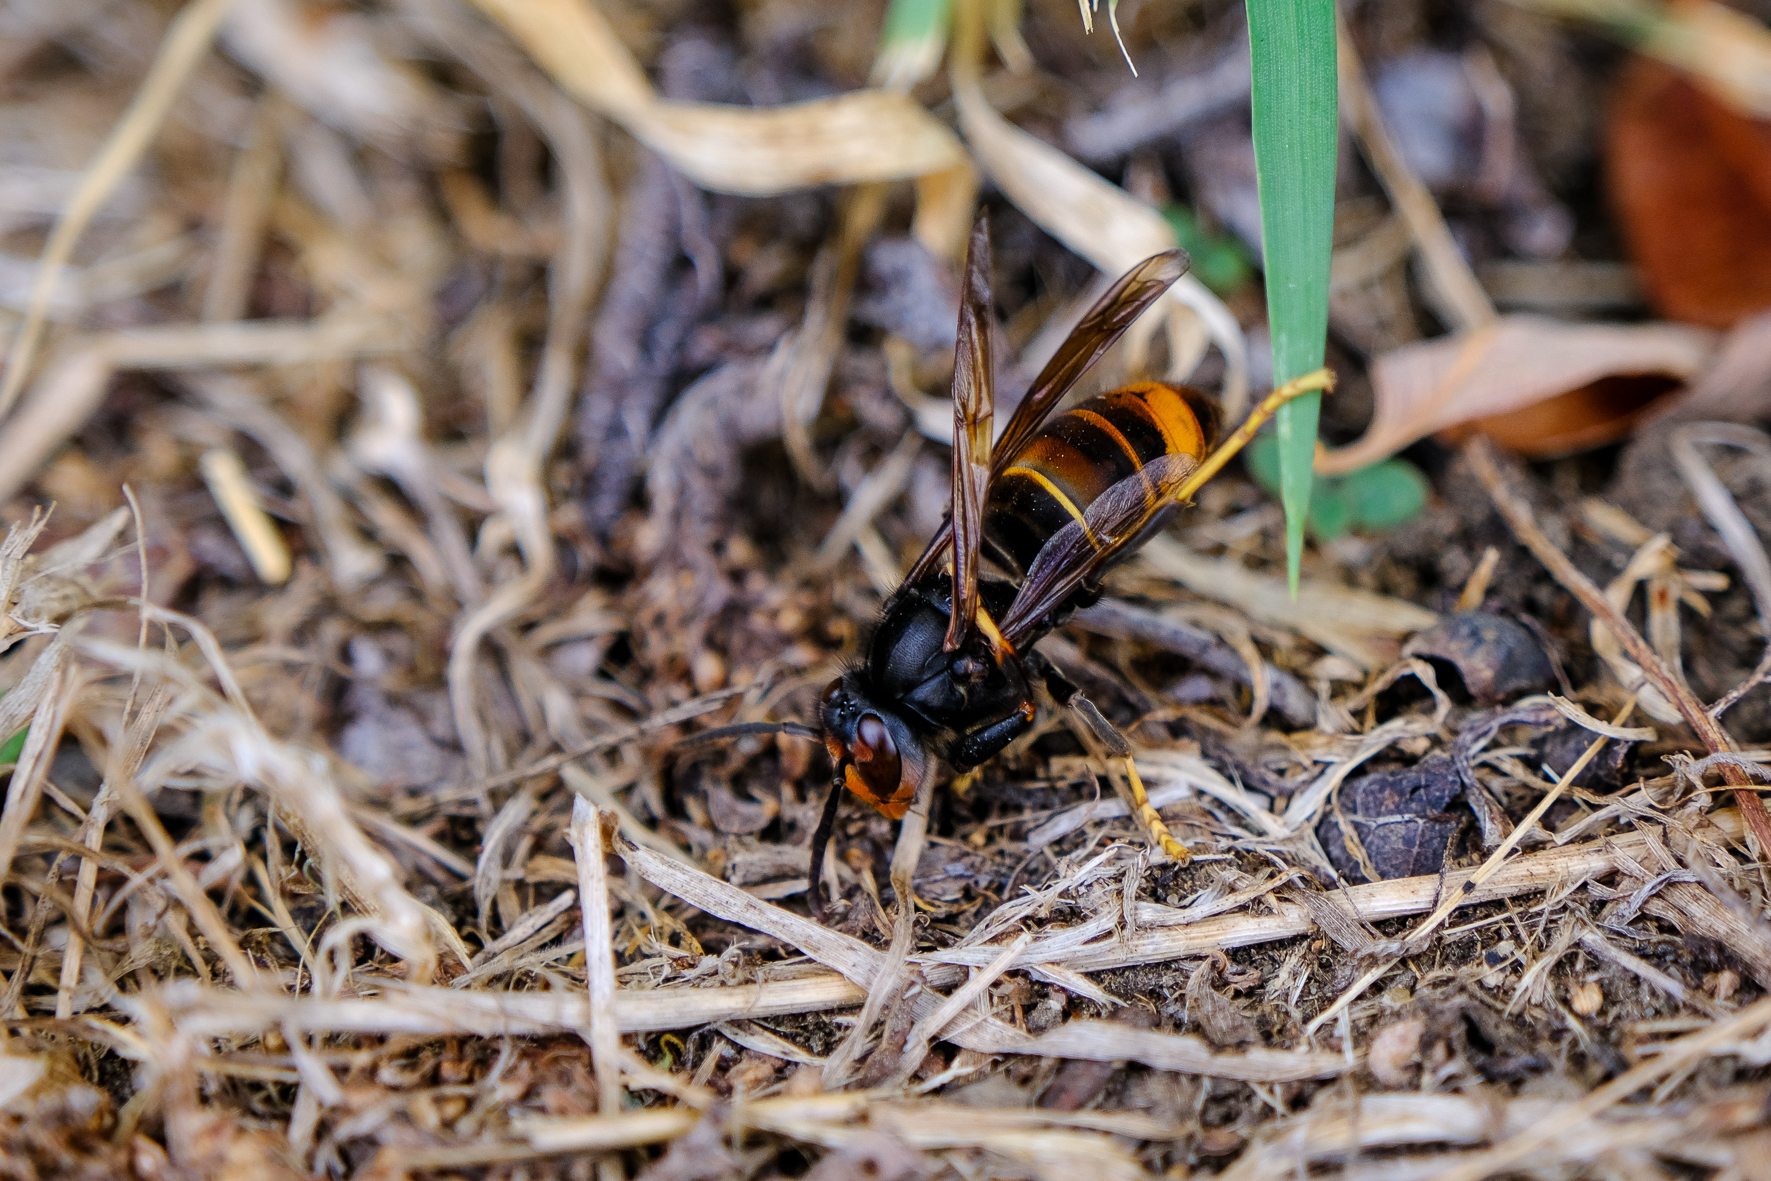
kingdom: Animalia
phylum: Arthropoda
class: Insecta
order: Hymenoptera
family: Vespidae
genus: Vespa
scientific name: Vespa velutina
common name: Asian hornet
